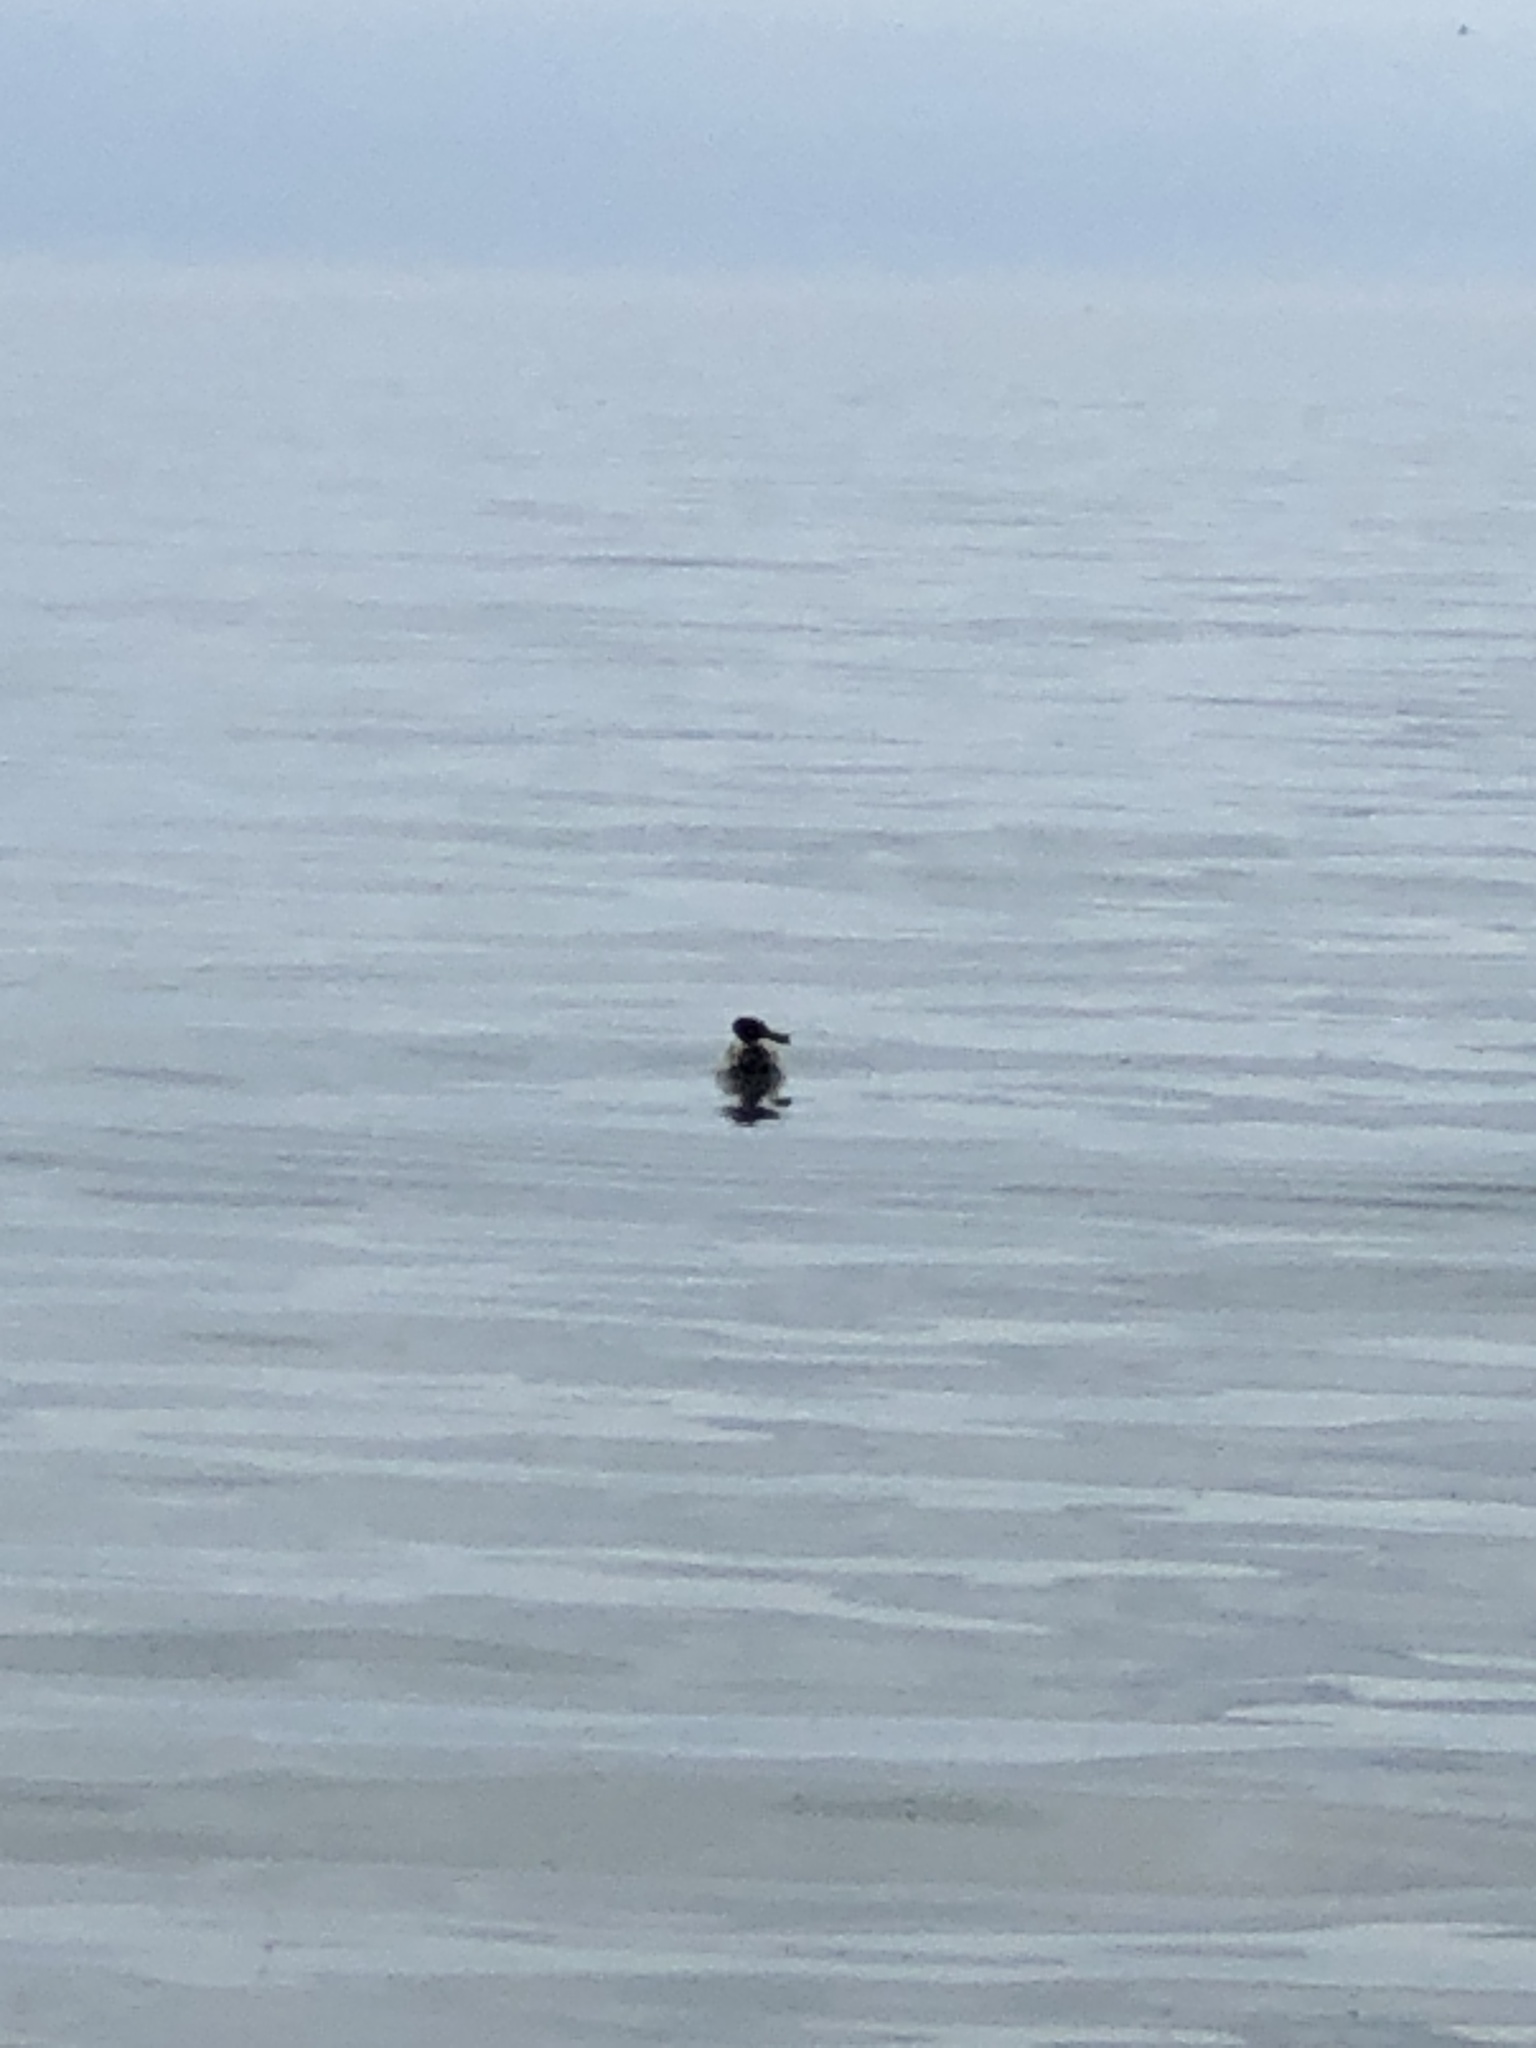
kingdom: Animalia
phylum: Chordata
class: Aves
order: Anseriformes
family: Anatidae
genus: Anas
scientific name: Anas platyrhynchos
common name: Mallard
